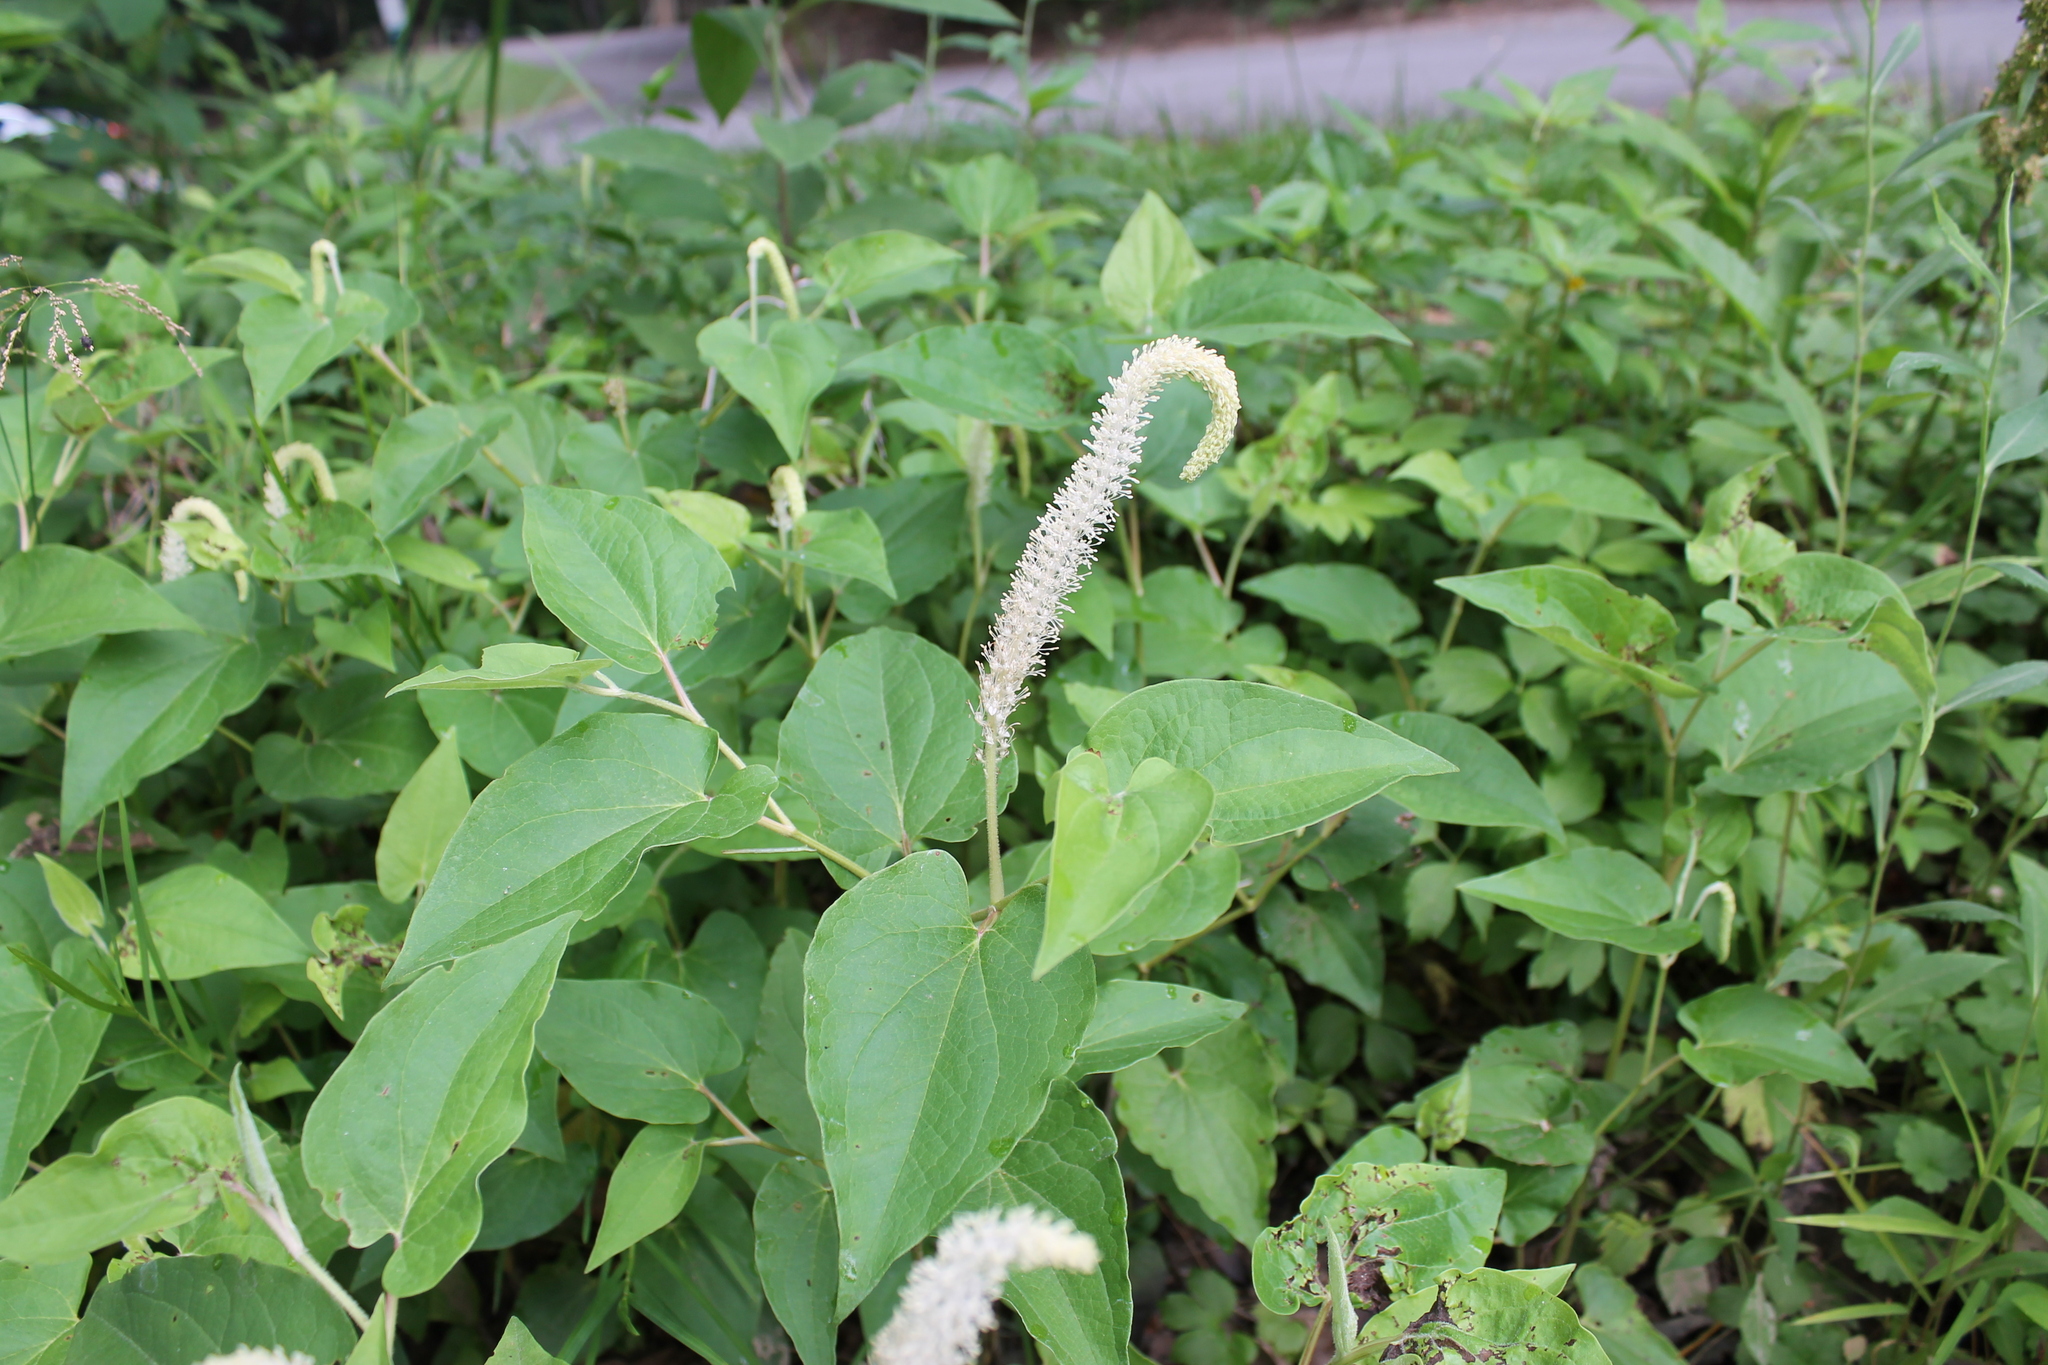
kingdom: Plantae
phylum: Tracheophyta
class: Magnoliopsida
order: Piperales
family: Saururaceae
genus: Saururus
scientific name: Saururus cernuus
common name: Lizard's-tail
